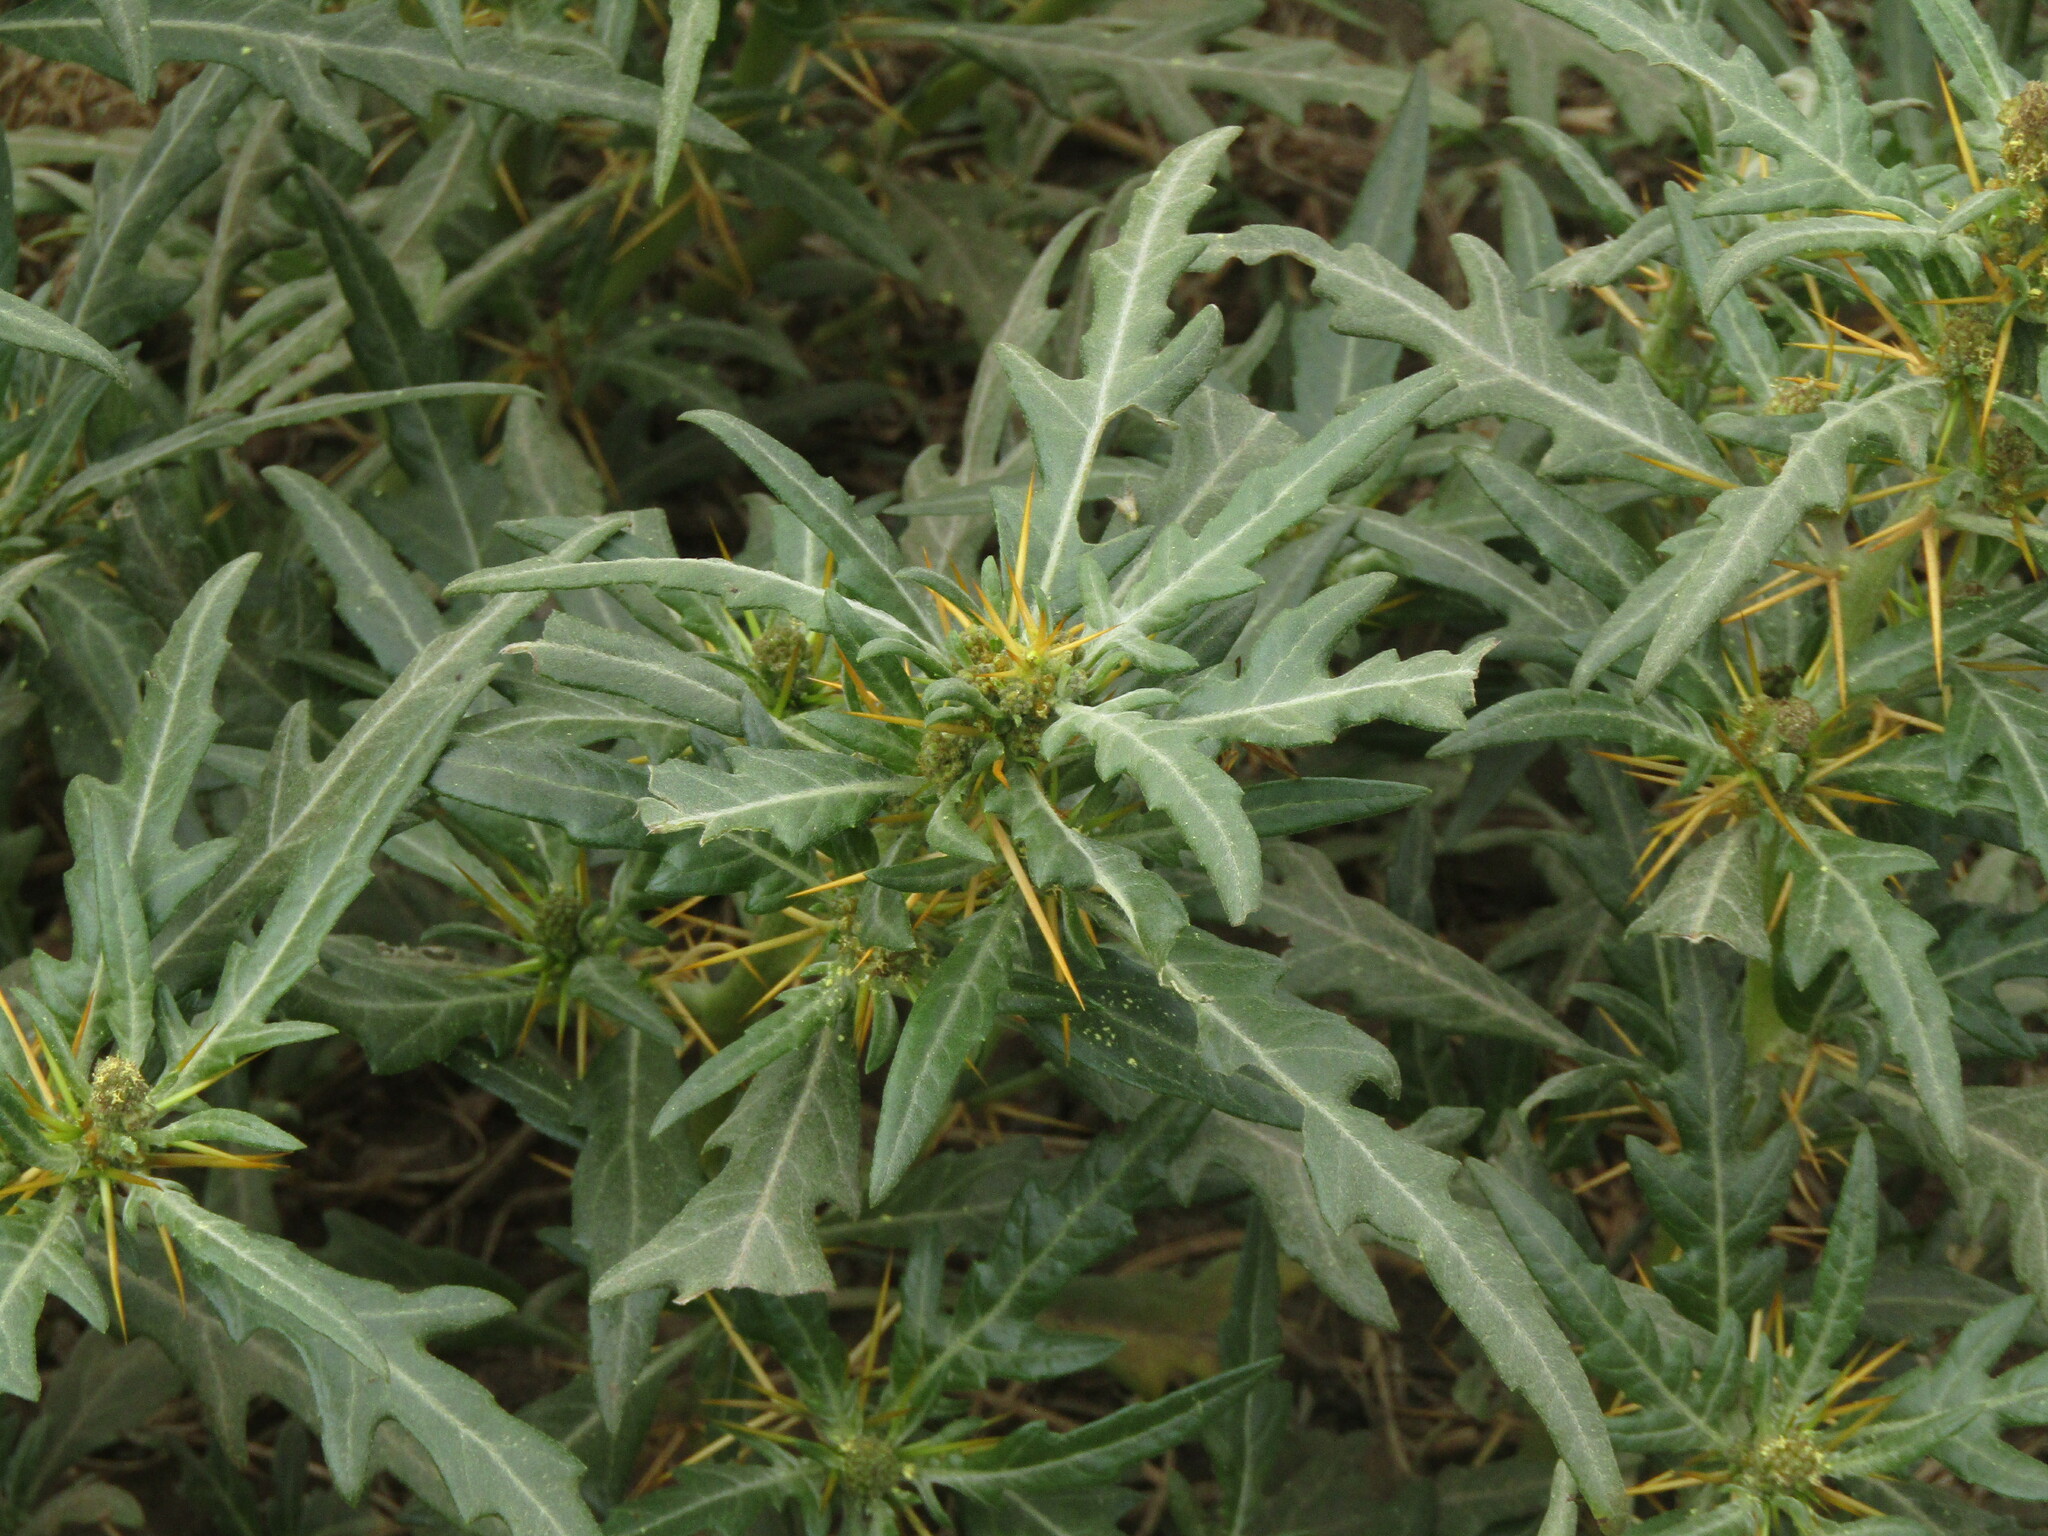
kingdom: Plantae
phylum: Tracheophyta
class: Magnoliopsida
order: Asterales
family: Asteraceae
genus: Xanthium
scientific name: Xanthium spinosum
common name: Spiny cocklebur
